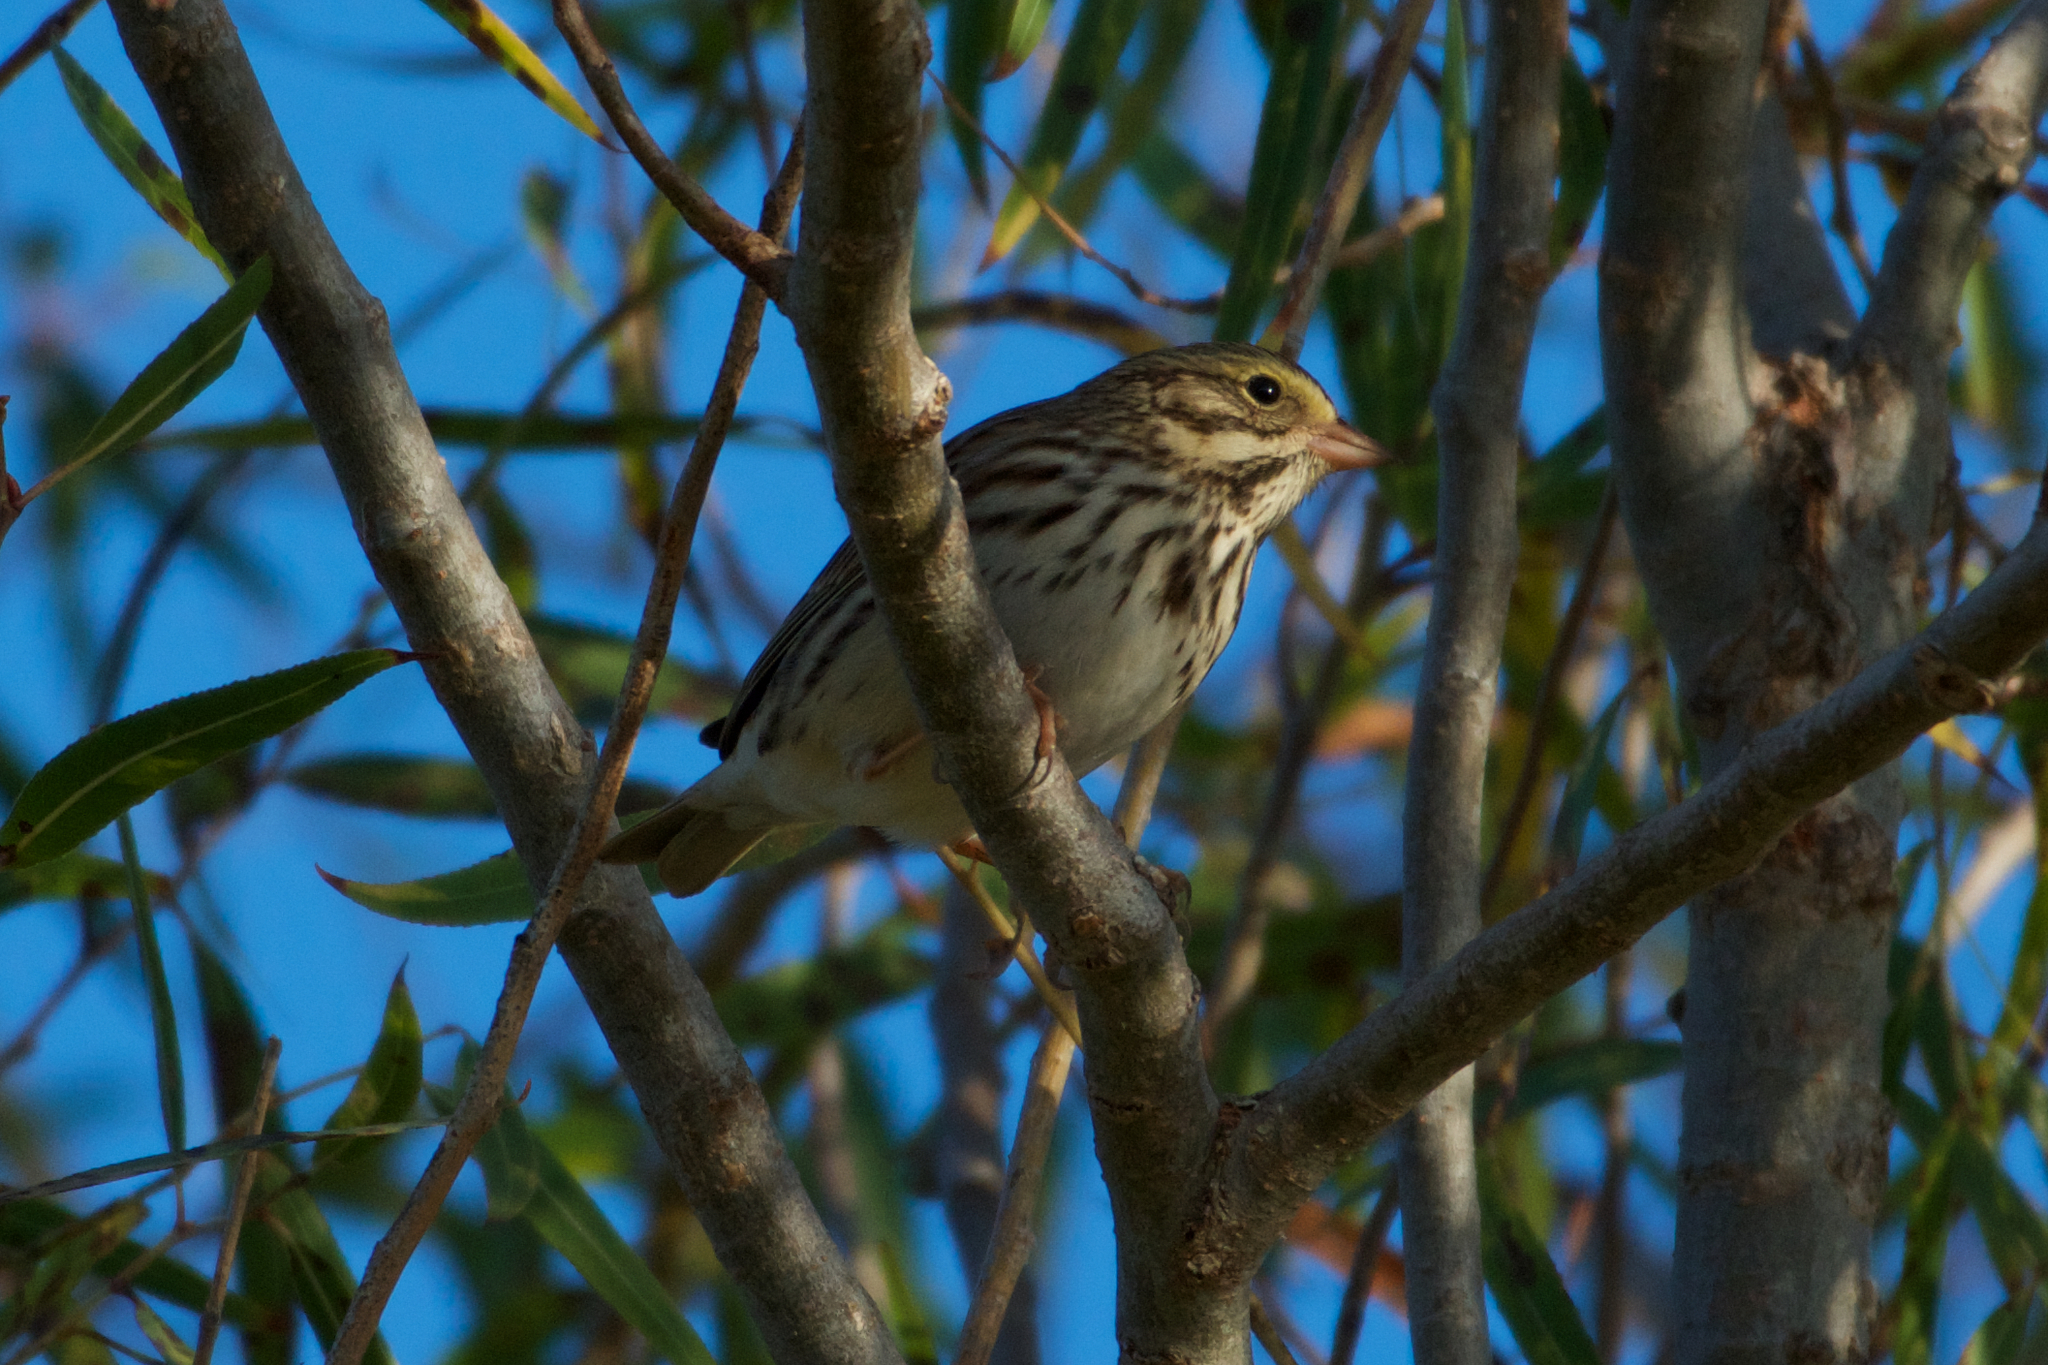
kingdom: Animalia
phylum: Chordata
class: Aves
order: Passeriformes
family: Passerellidae
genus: Passerculus
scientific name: Passerculus sandwichensis
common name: Savannah sparrow
